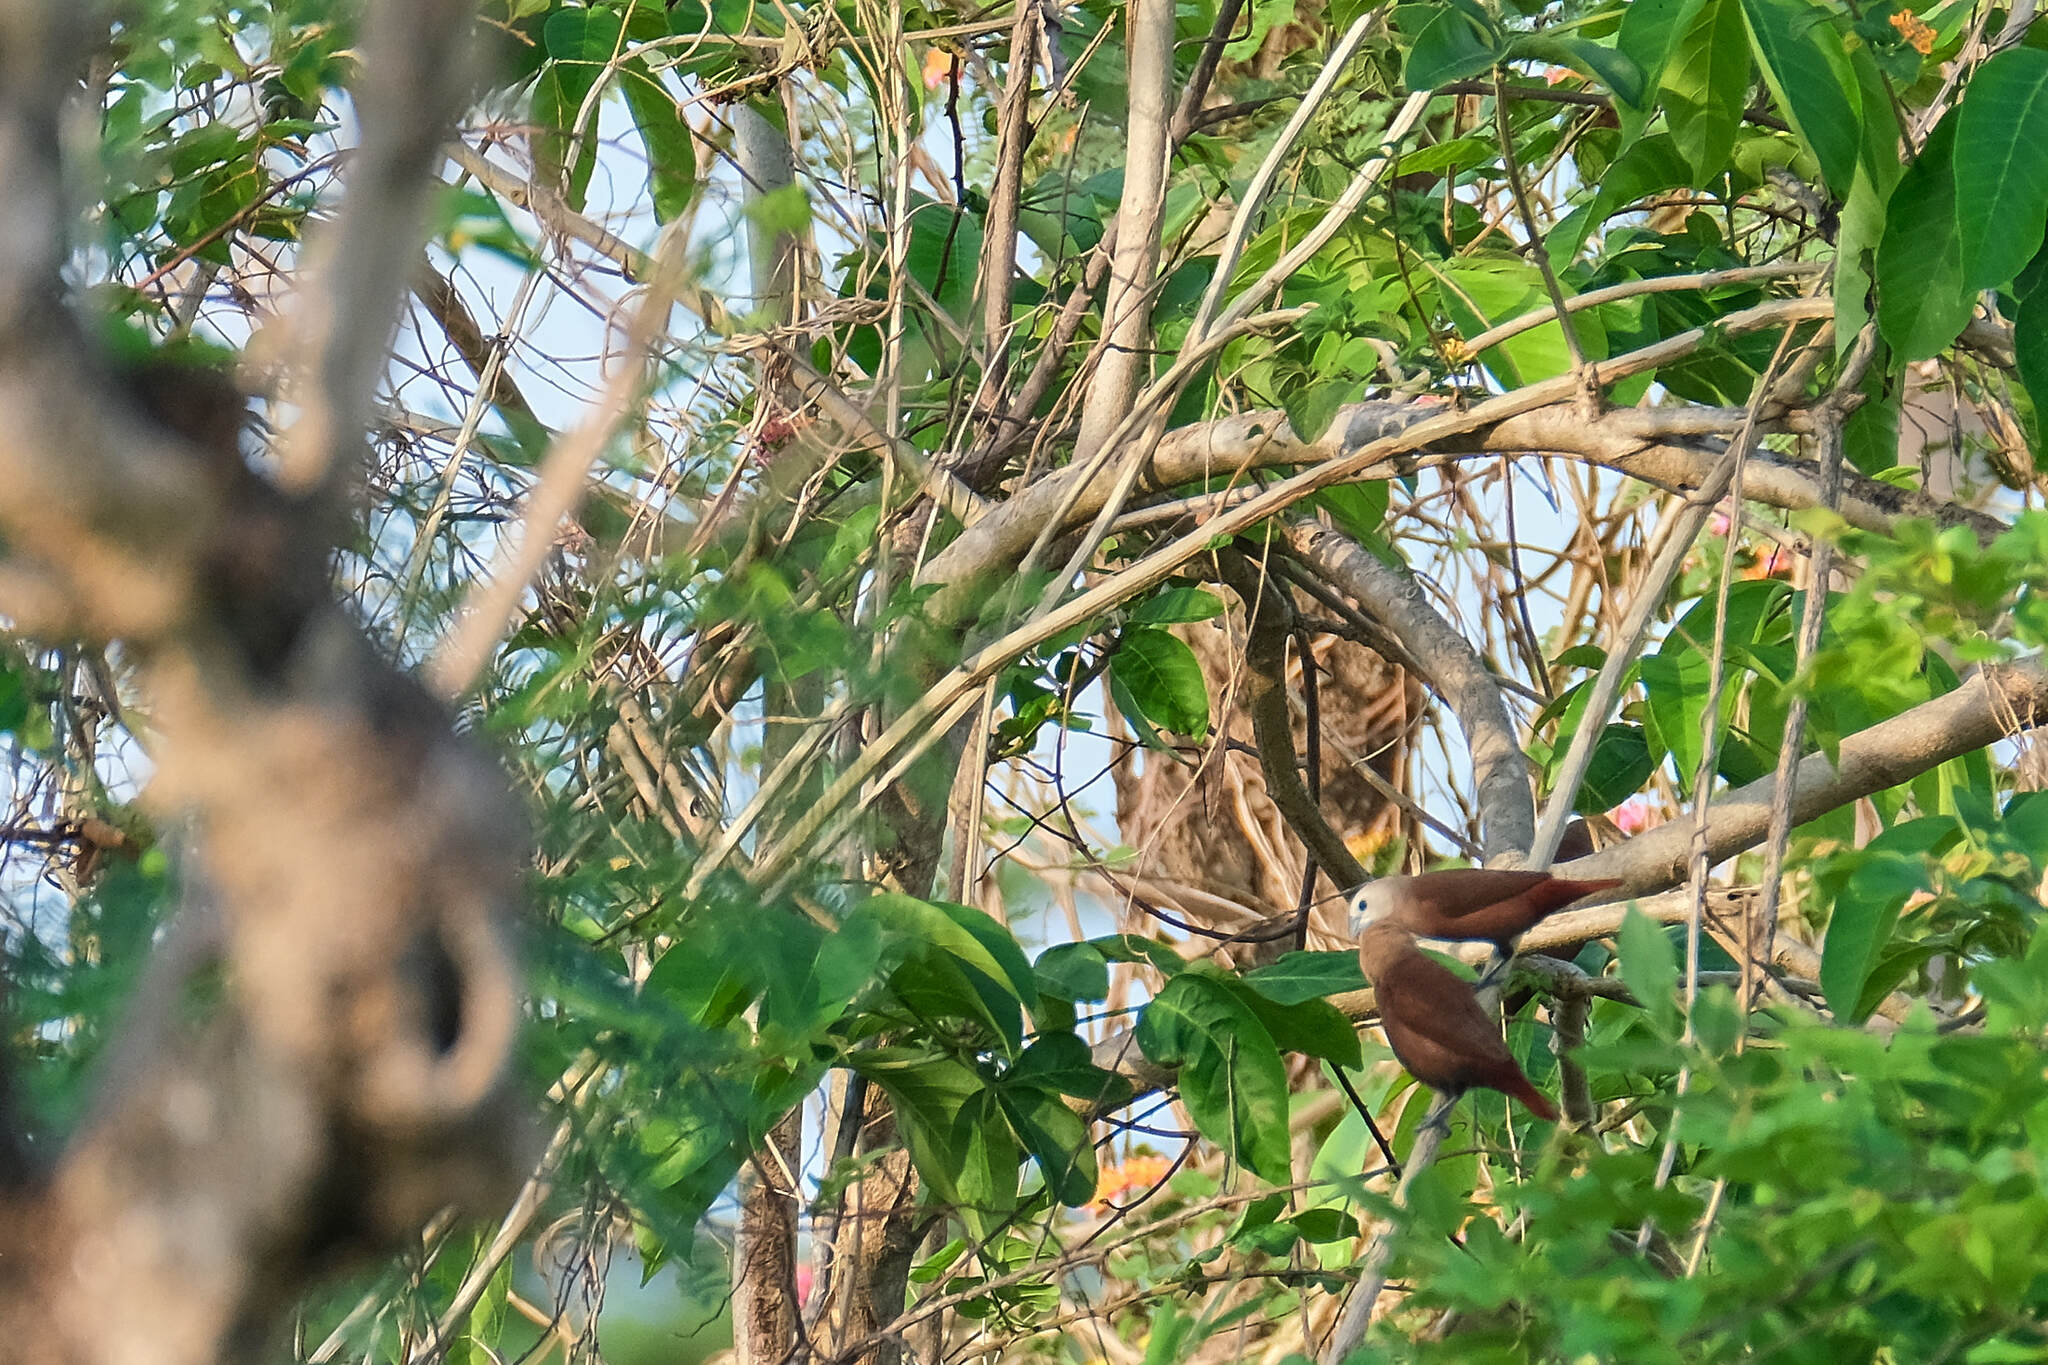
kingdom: Animalia
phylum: Chordata
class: Aves
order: Passeriformes
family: Estrildidae
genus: Lonchura
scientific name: Lonchura maja
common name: White-headed munia
